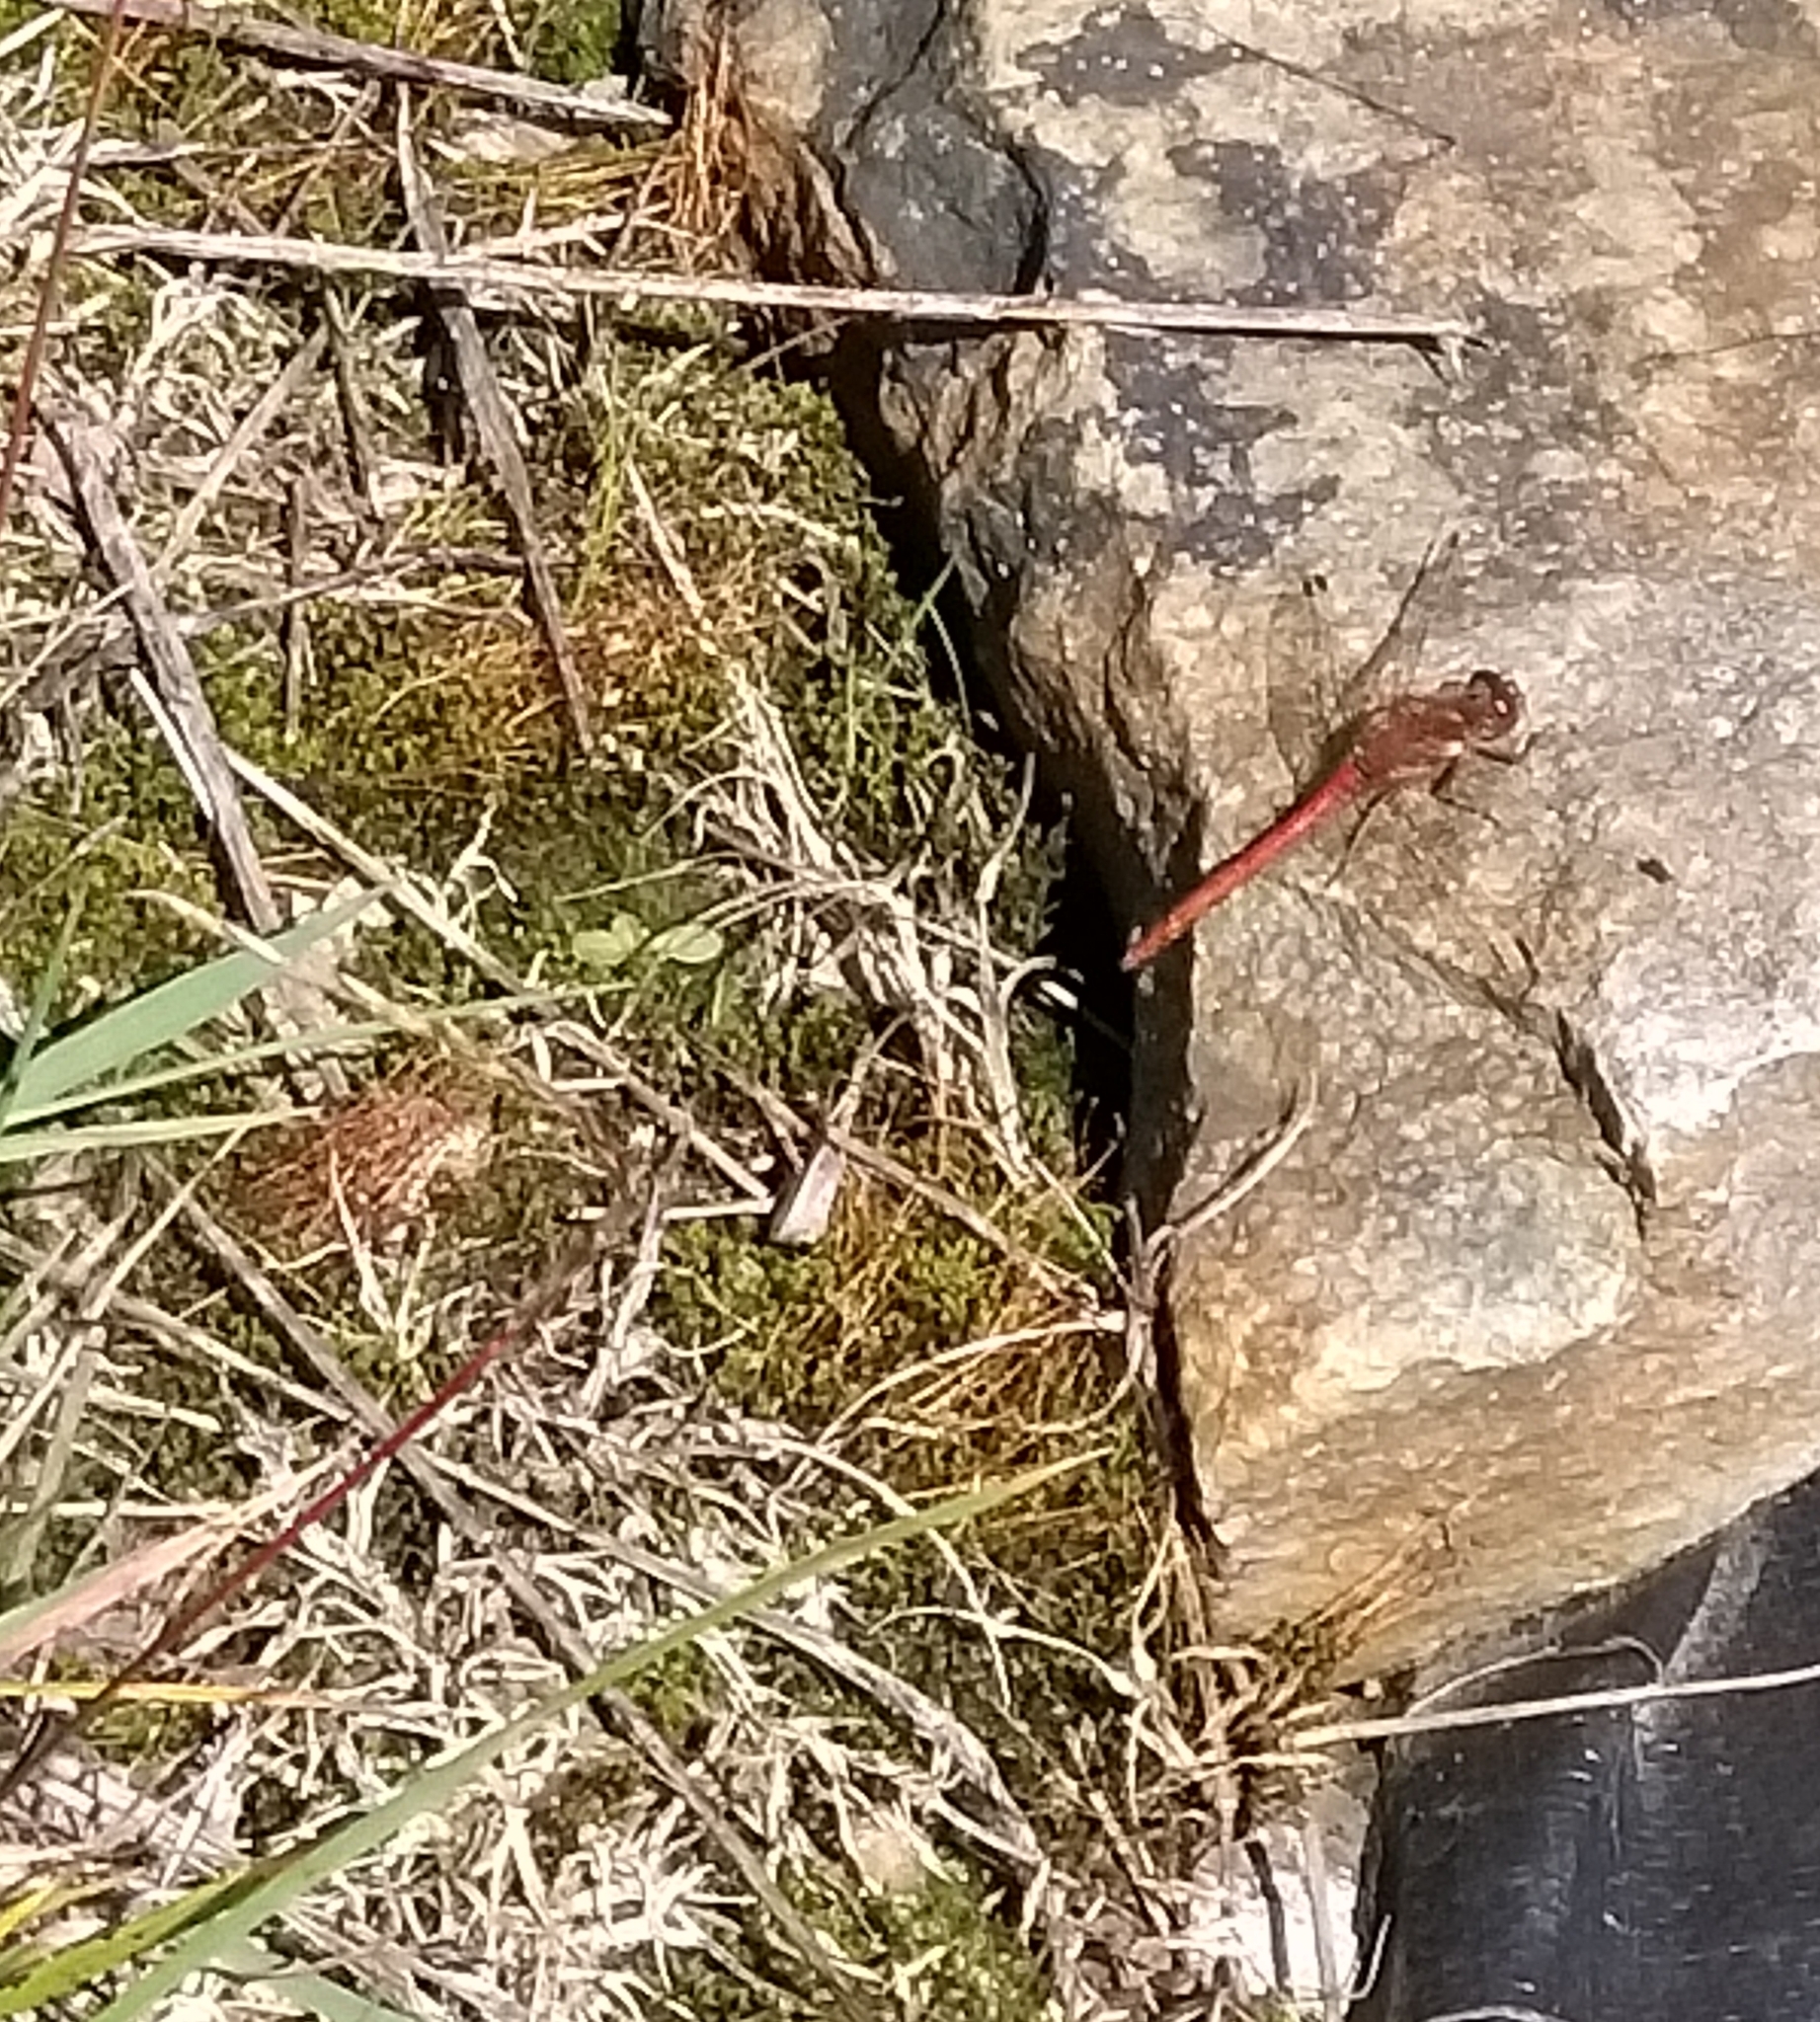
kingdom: Animalia
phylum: Arthropoda
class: Insecta
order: Odonata
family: Libellulidae
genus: Sympetrum
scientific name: Sympetrum striolatum
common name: Common darter
